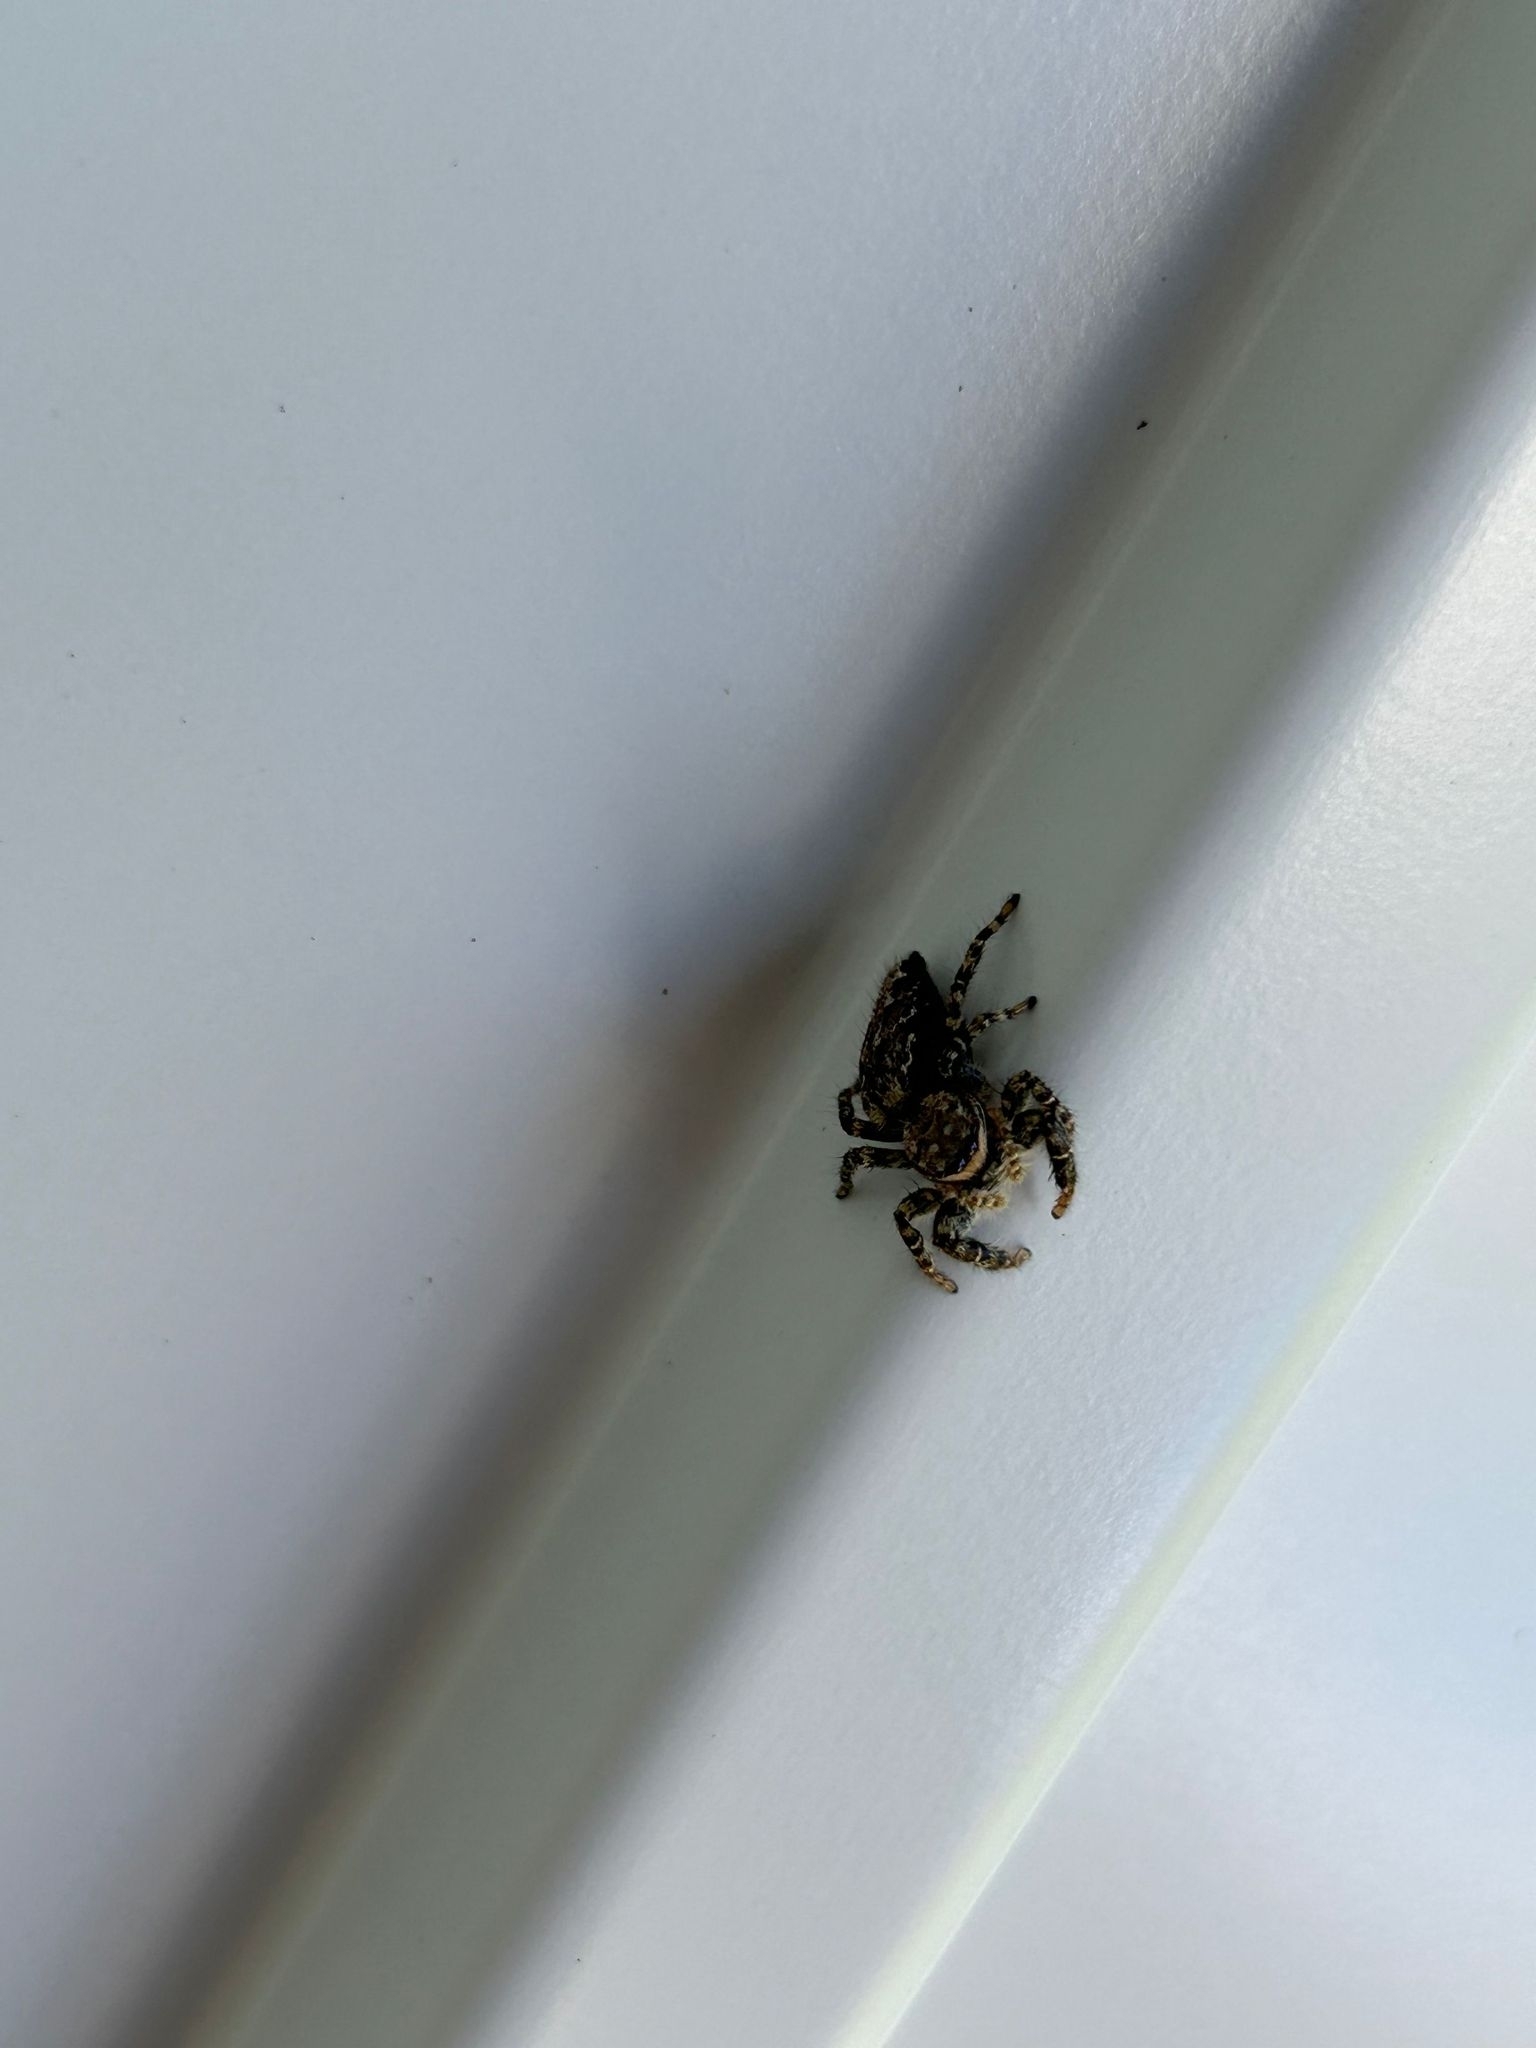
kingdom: Animalia
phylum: Arthropoda
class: Arachnida
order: Araneae
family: Salticidae
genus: Marpissa
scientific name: Marpissa muscosa
